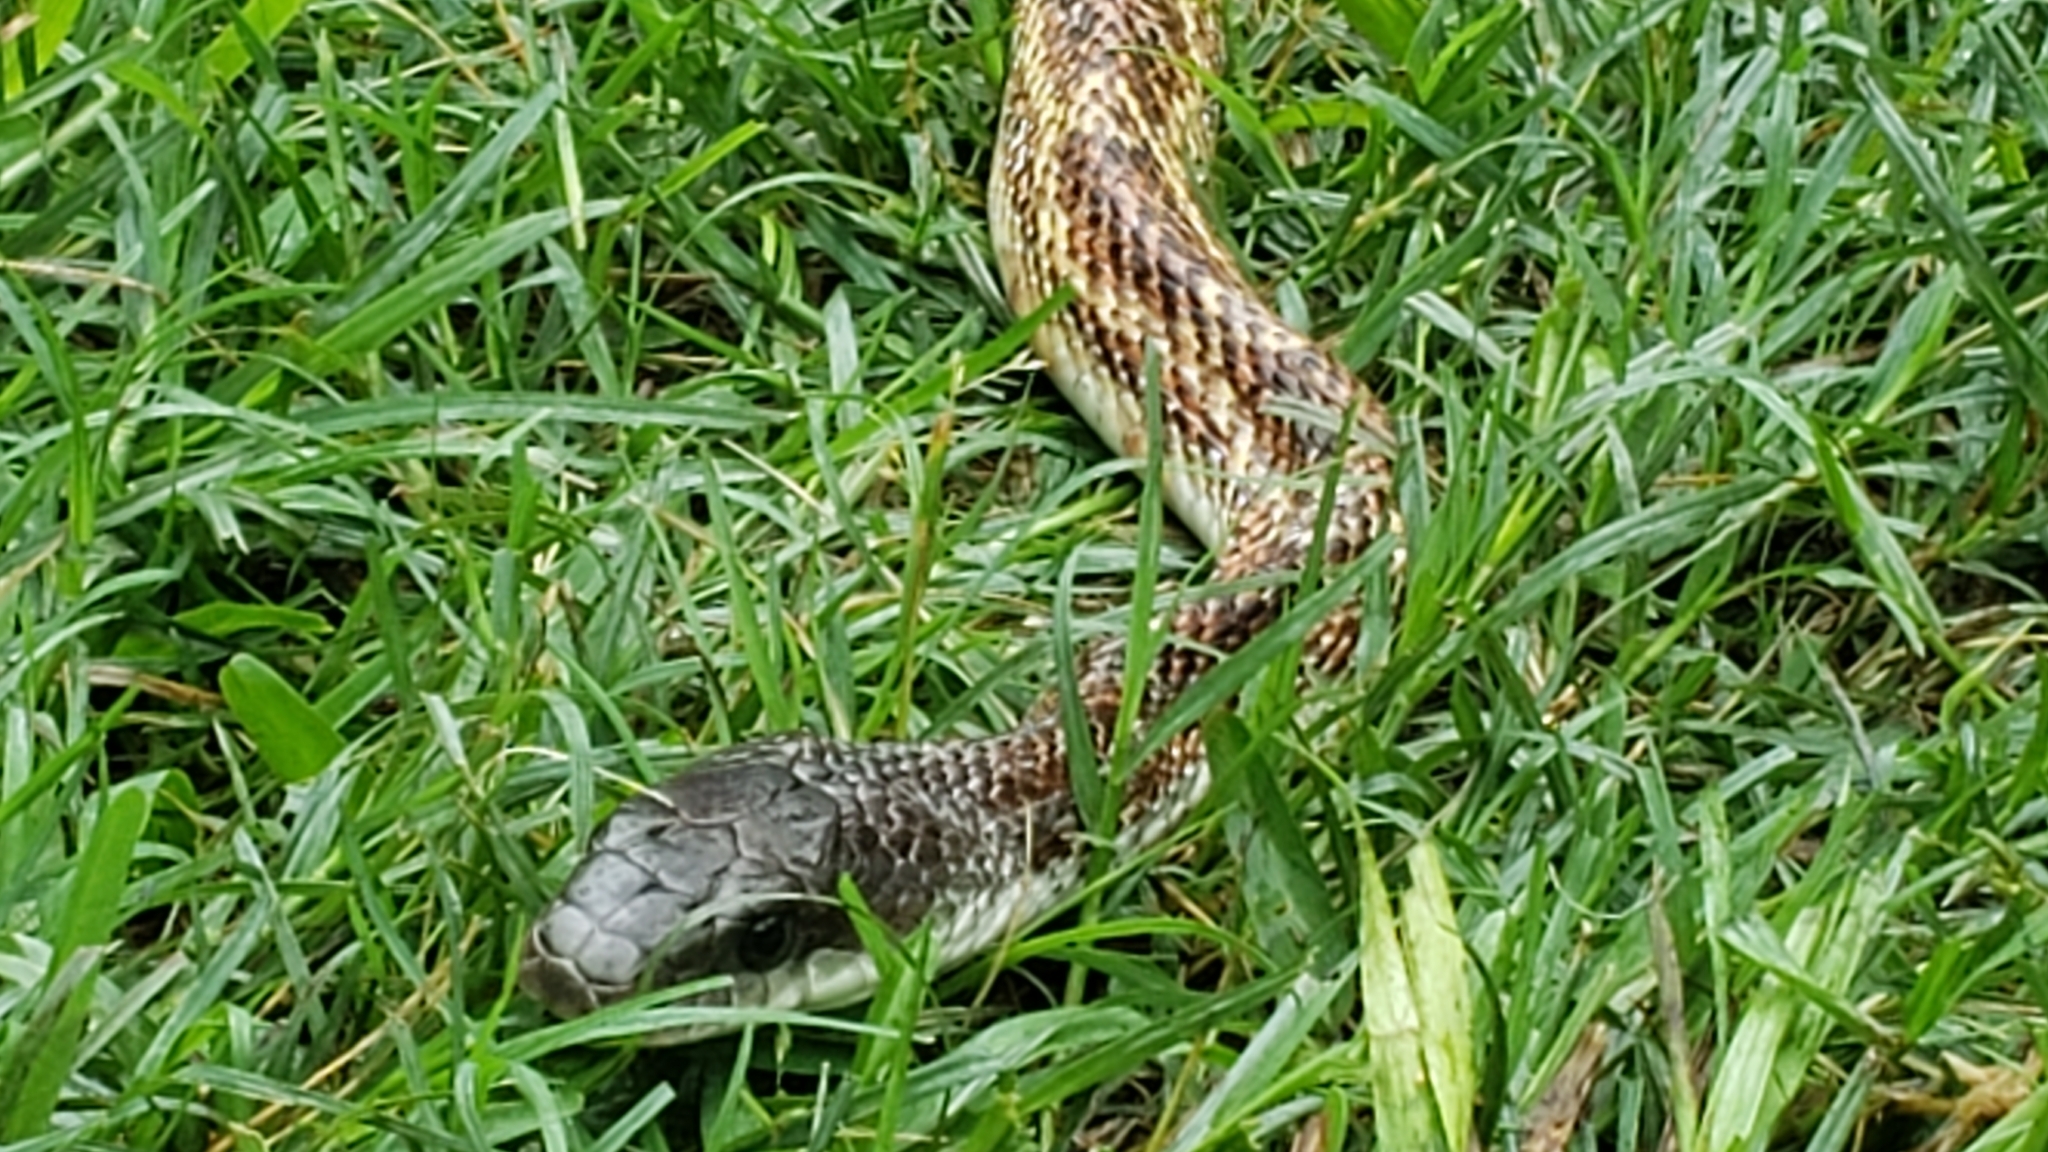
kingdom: Animalia
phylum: Chordata
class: Squamata
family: Colubridae
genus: Pantherophis
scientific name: Pantherophis obsoletus
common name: Black rat snake
